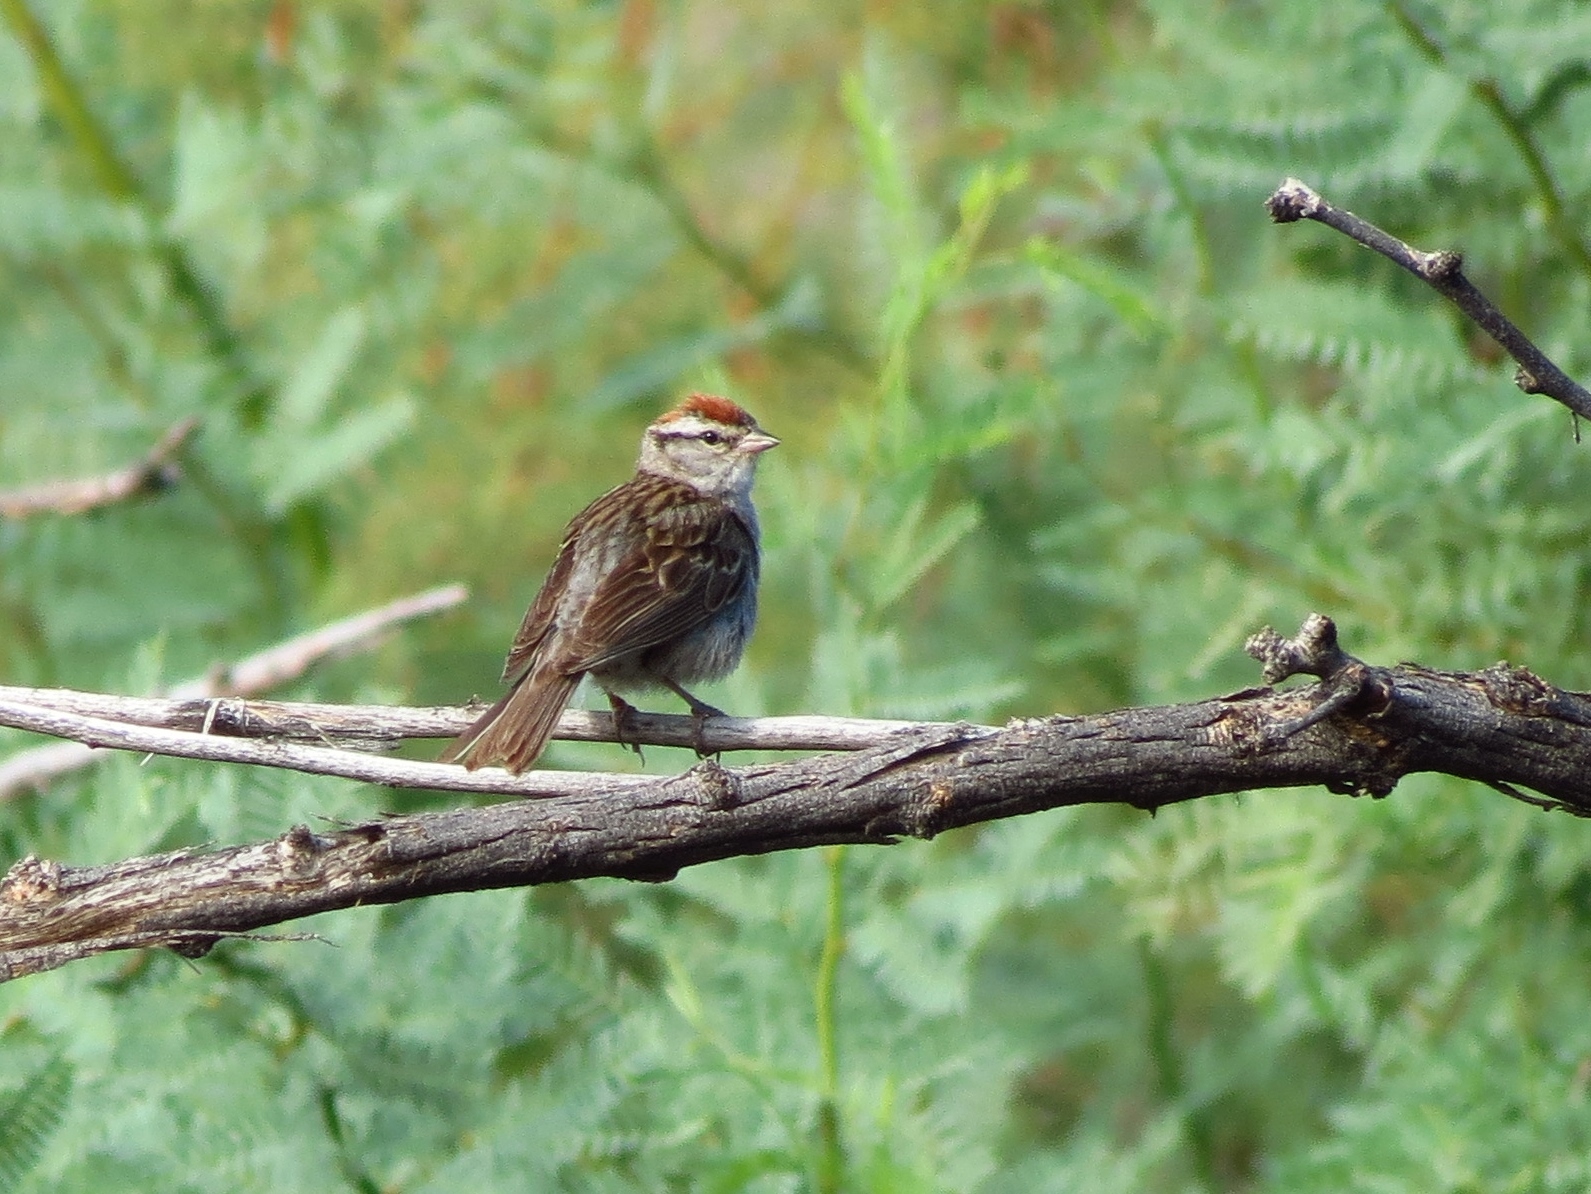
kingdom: Animalia
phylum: Chordata
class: Aves
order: Passeriformes
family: Passerellidae
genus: Spizella
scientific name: Spizella passerina
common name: Chipping sparrow
